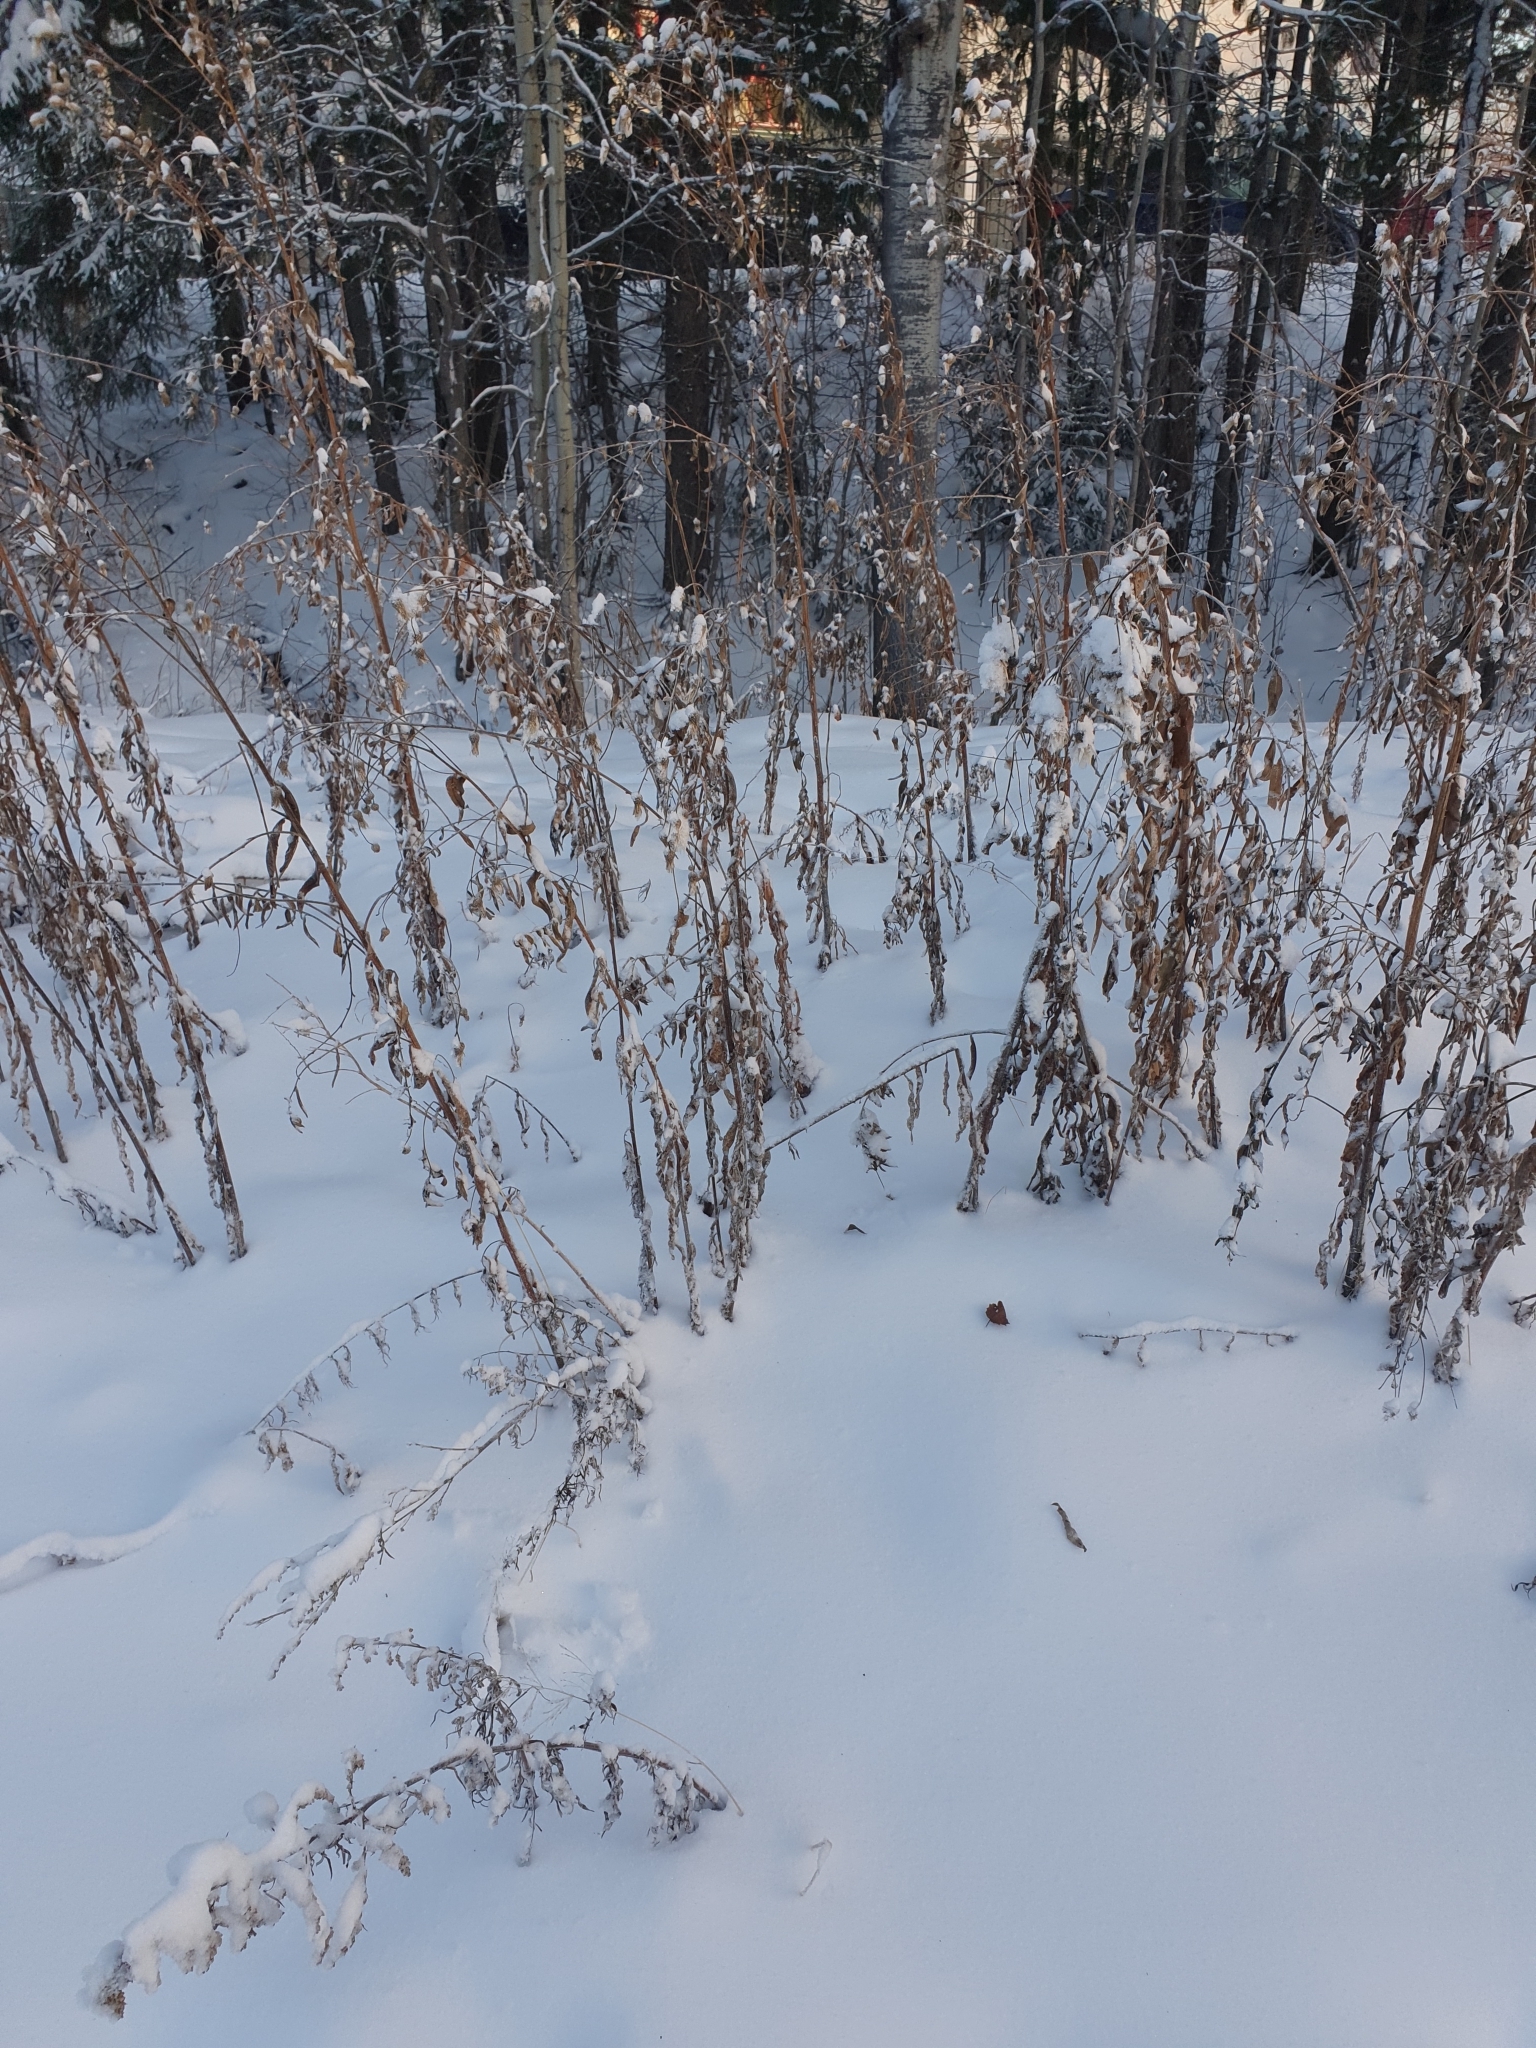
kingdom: Plantae
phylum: Tracheophyta
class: Magnoliopsida
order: Asterales
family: Asteraceae
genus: Artemisia
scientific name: Artemisia vulgaris
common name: Mugwort
